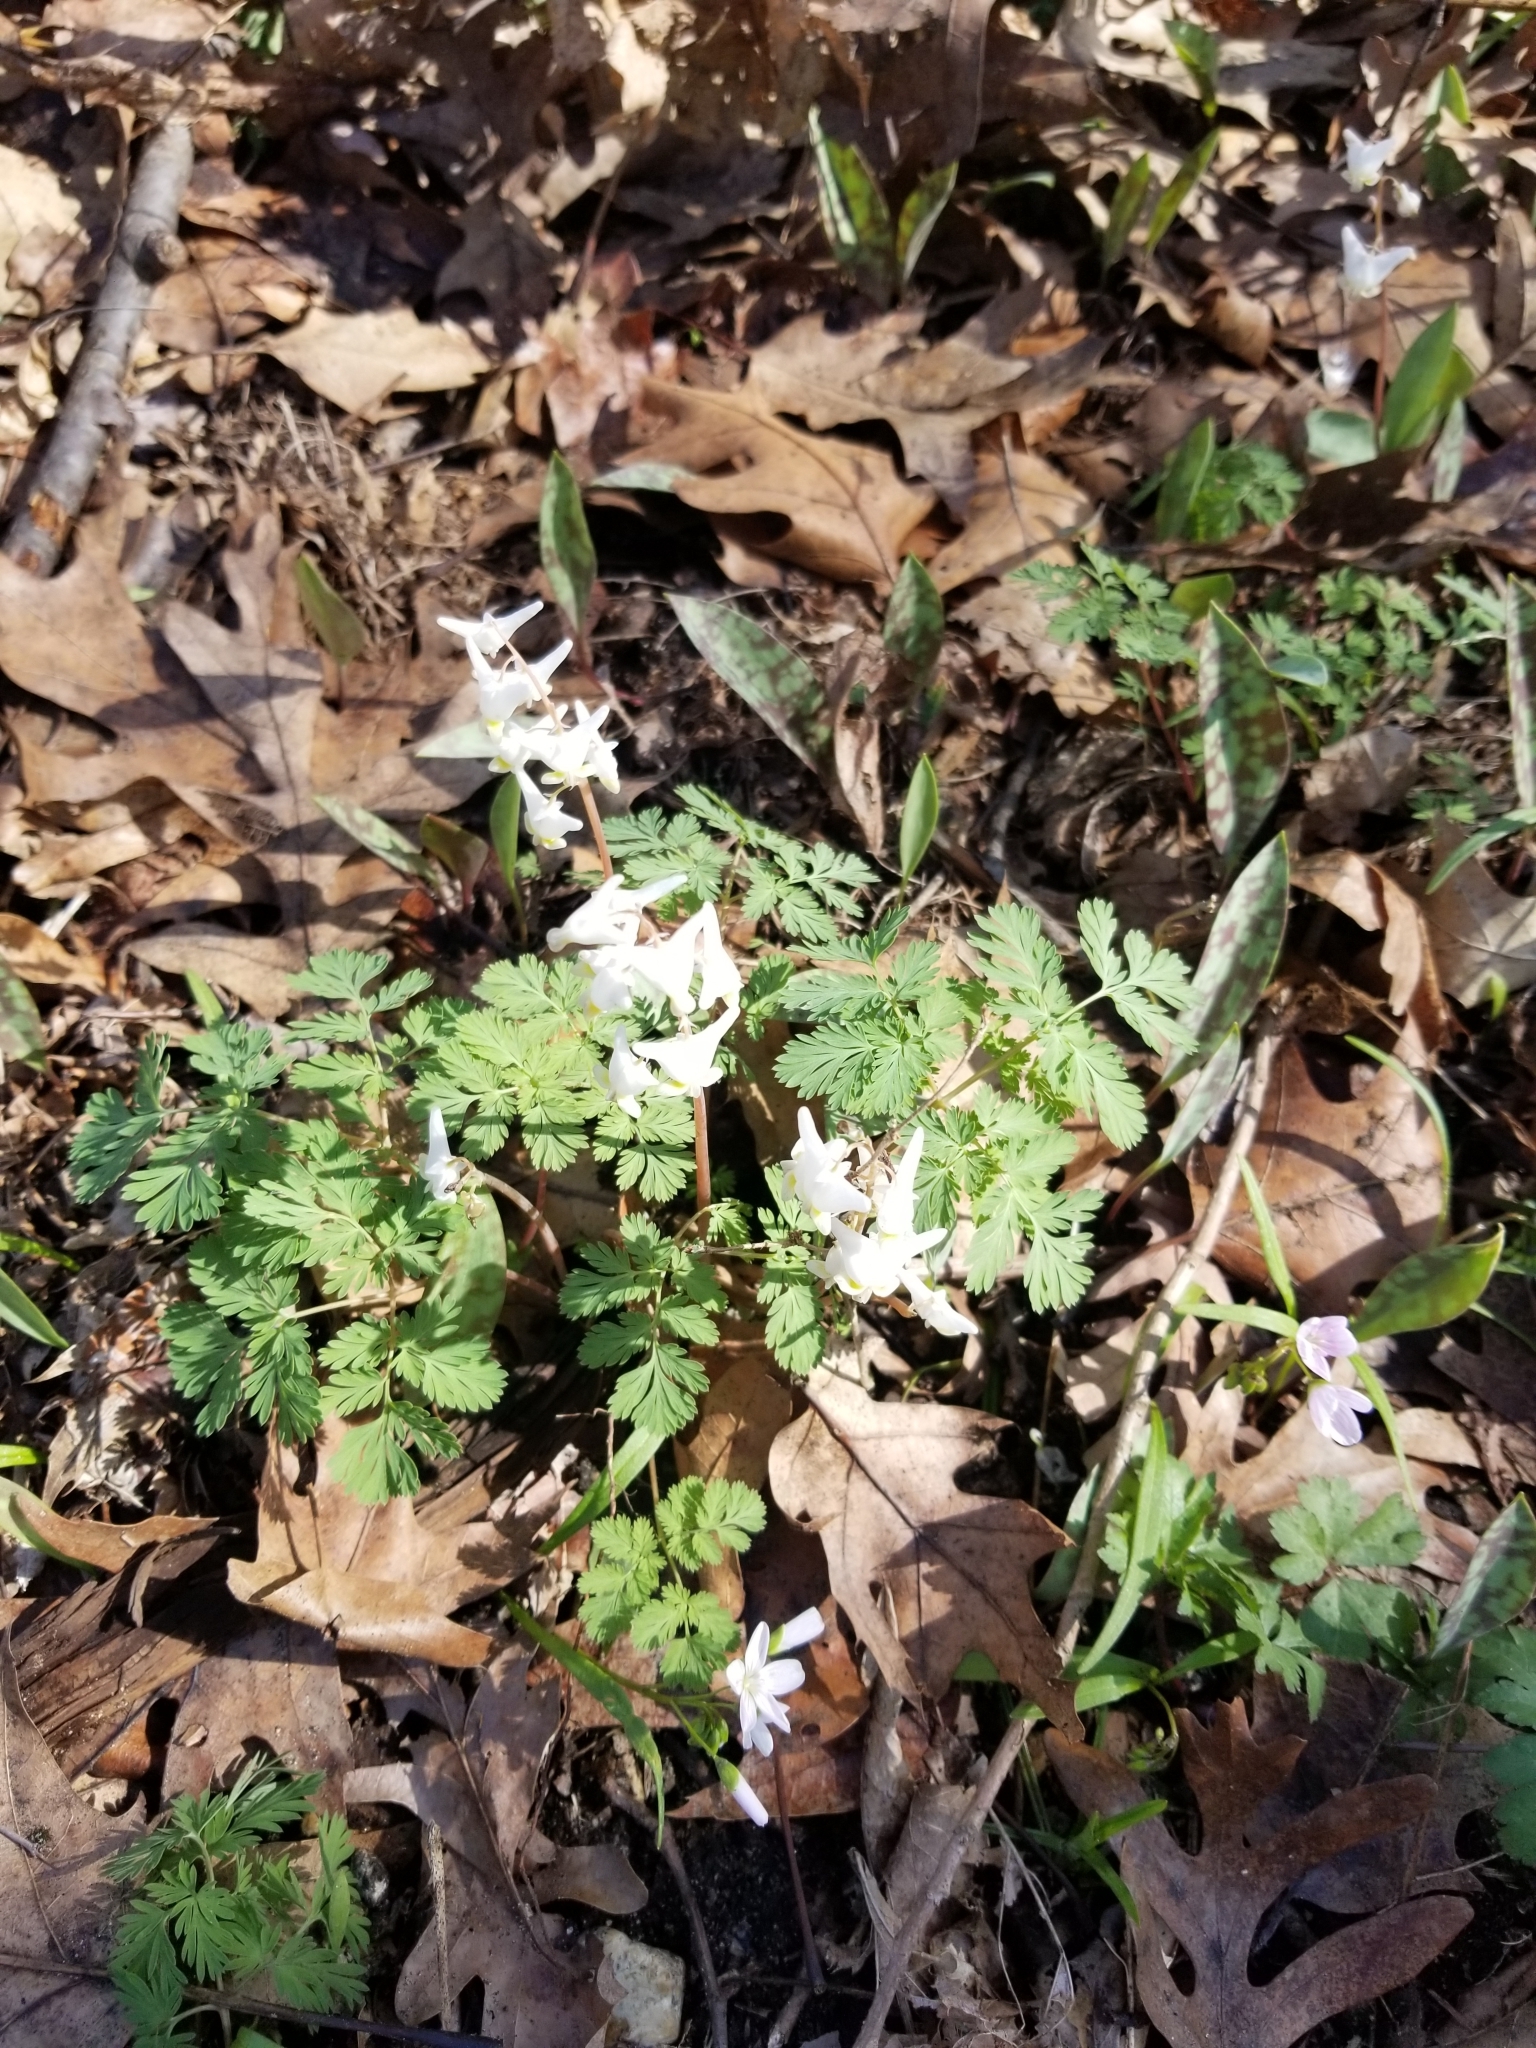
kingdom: Plantae
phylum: Tracheophyta
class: Magnoliopsida
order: Ranunculales
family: Papaveraceae
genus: Dicentra
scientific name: Dicentra cucullaria
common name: Dutchman's breeches
